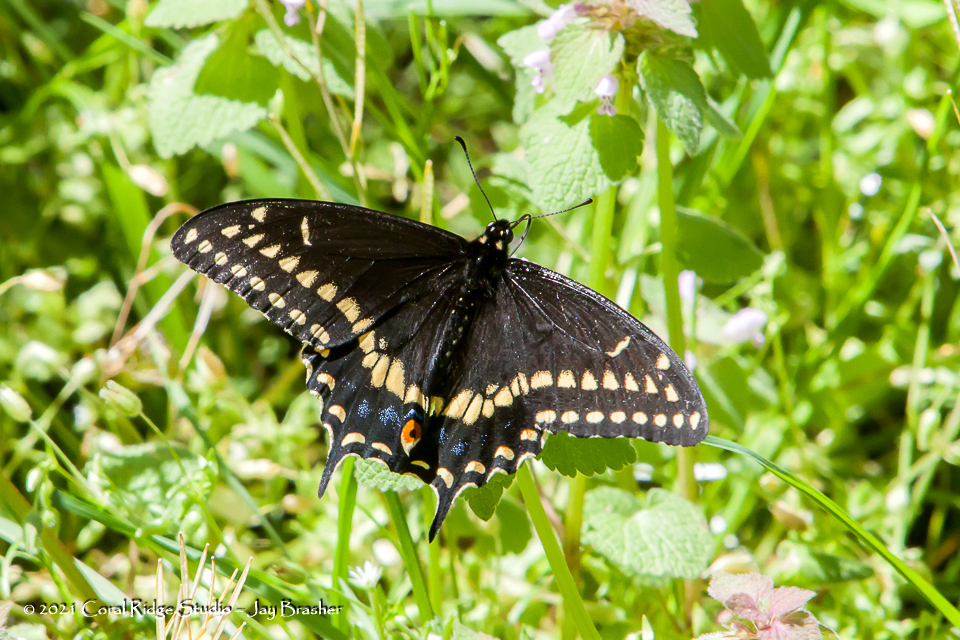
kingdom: Animalia
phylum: Arthropoda
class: Insecta
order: Lepidoptera
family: Papilionidae
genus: Papilio
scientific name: Papilio polyxenes
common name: Black swallowtail
